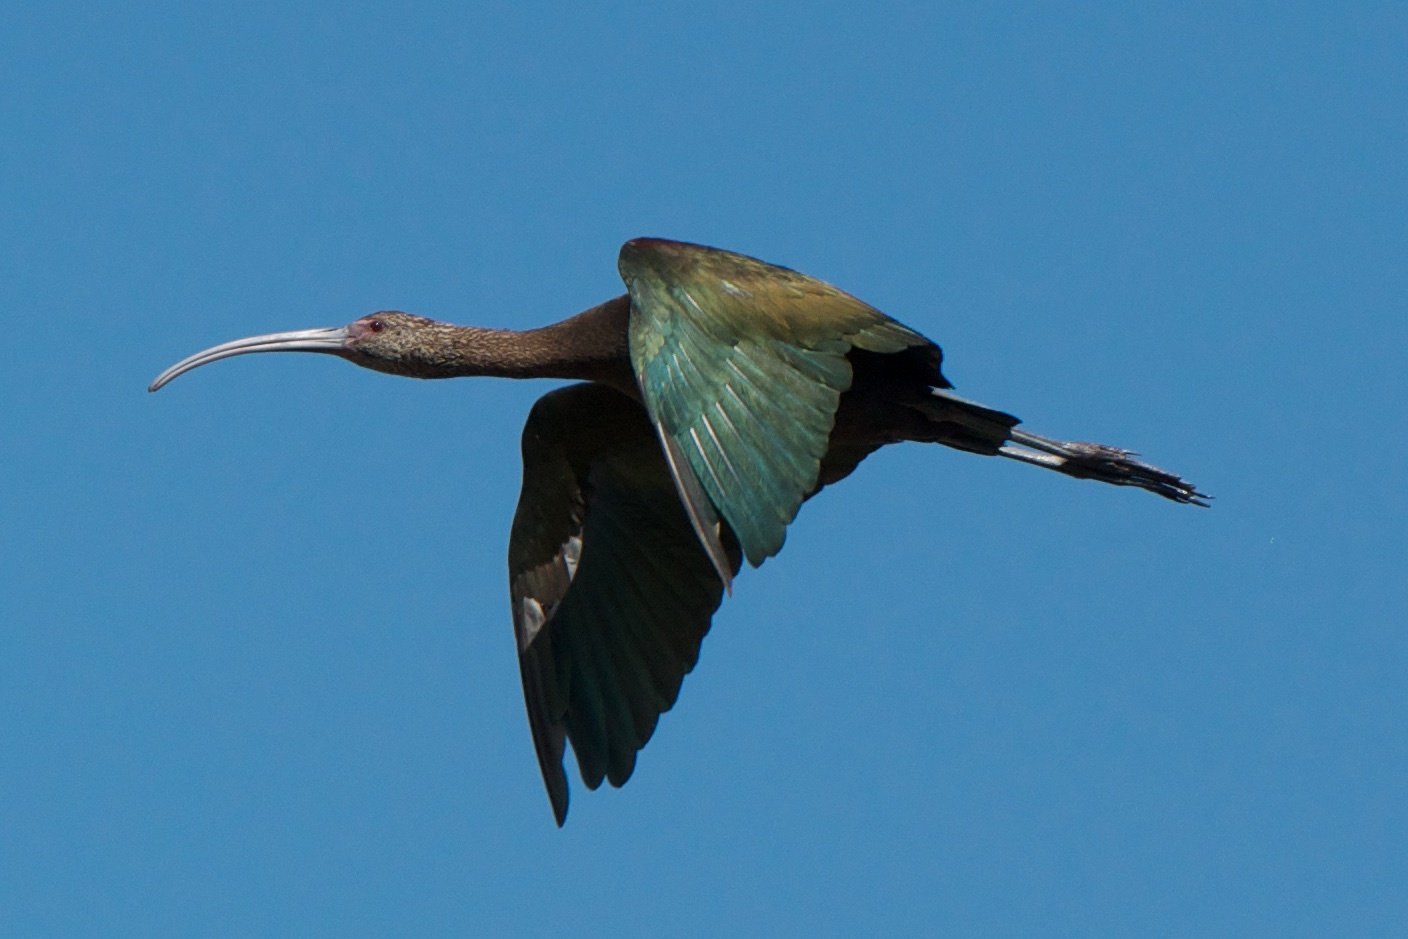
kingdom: Animalia
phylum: Chordata
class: Aves
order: Pelecaniformes
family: Threskiornithidae
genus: Plegadis
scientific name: Plegadis chihi
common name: White-faced ibis
